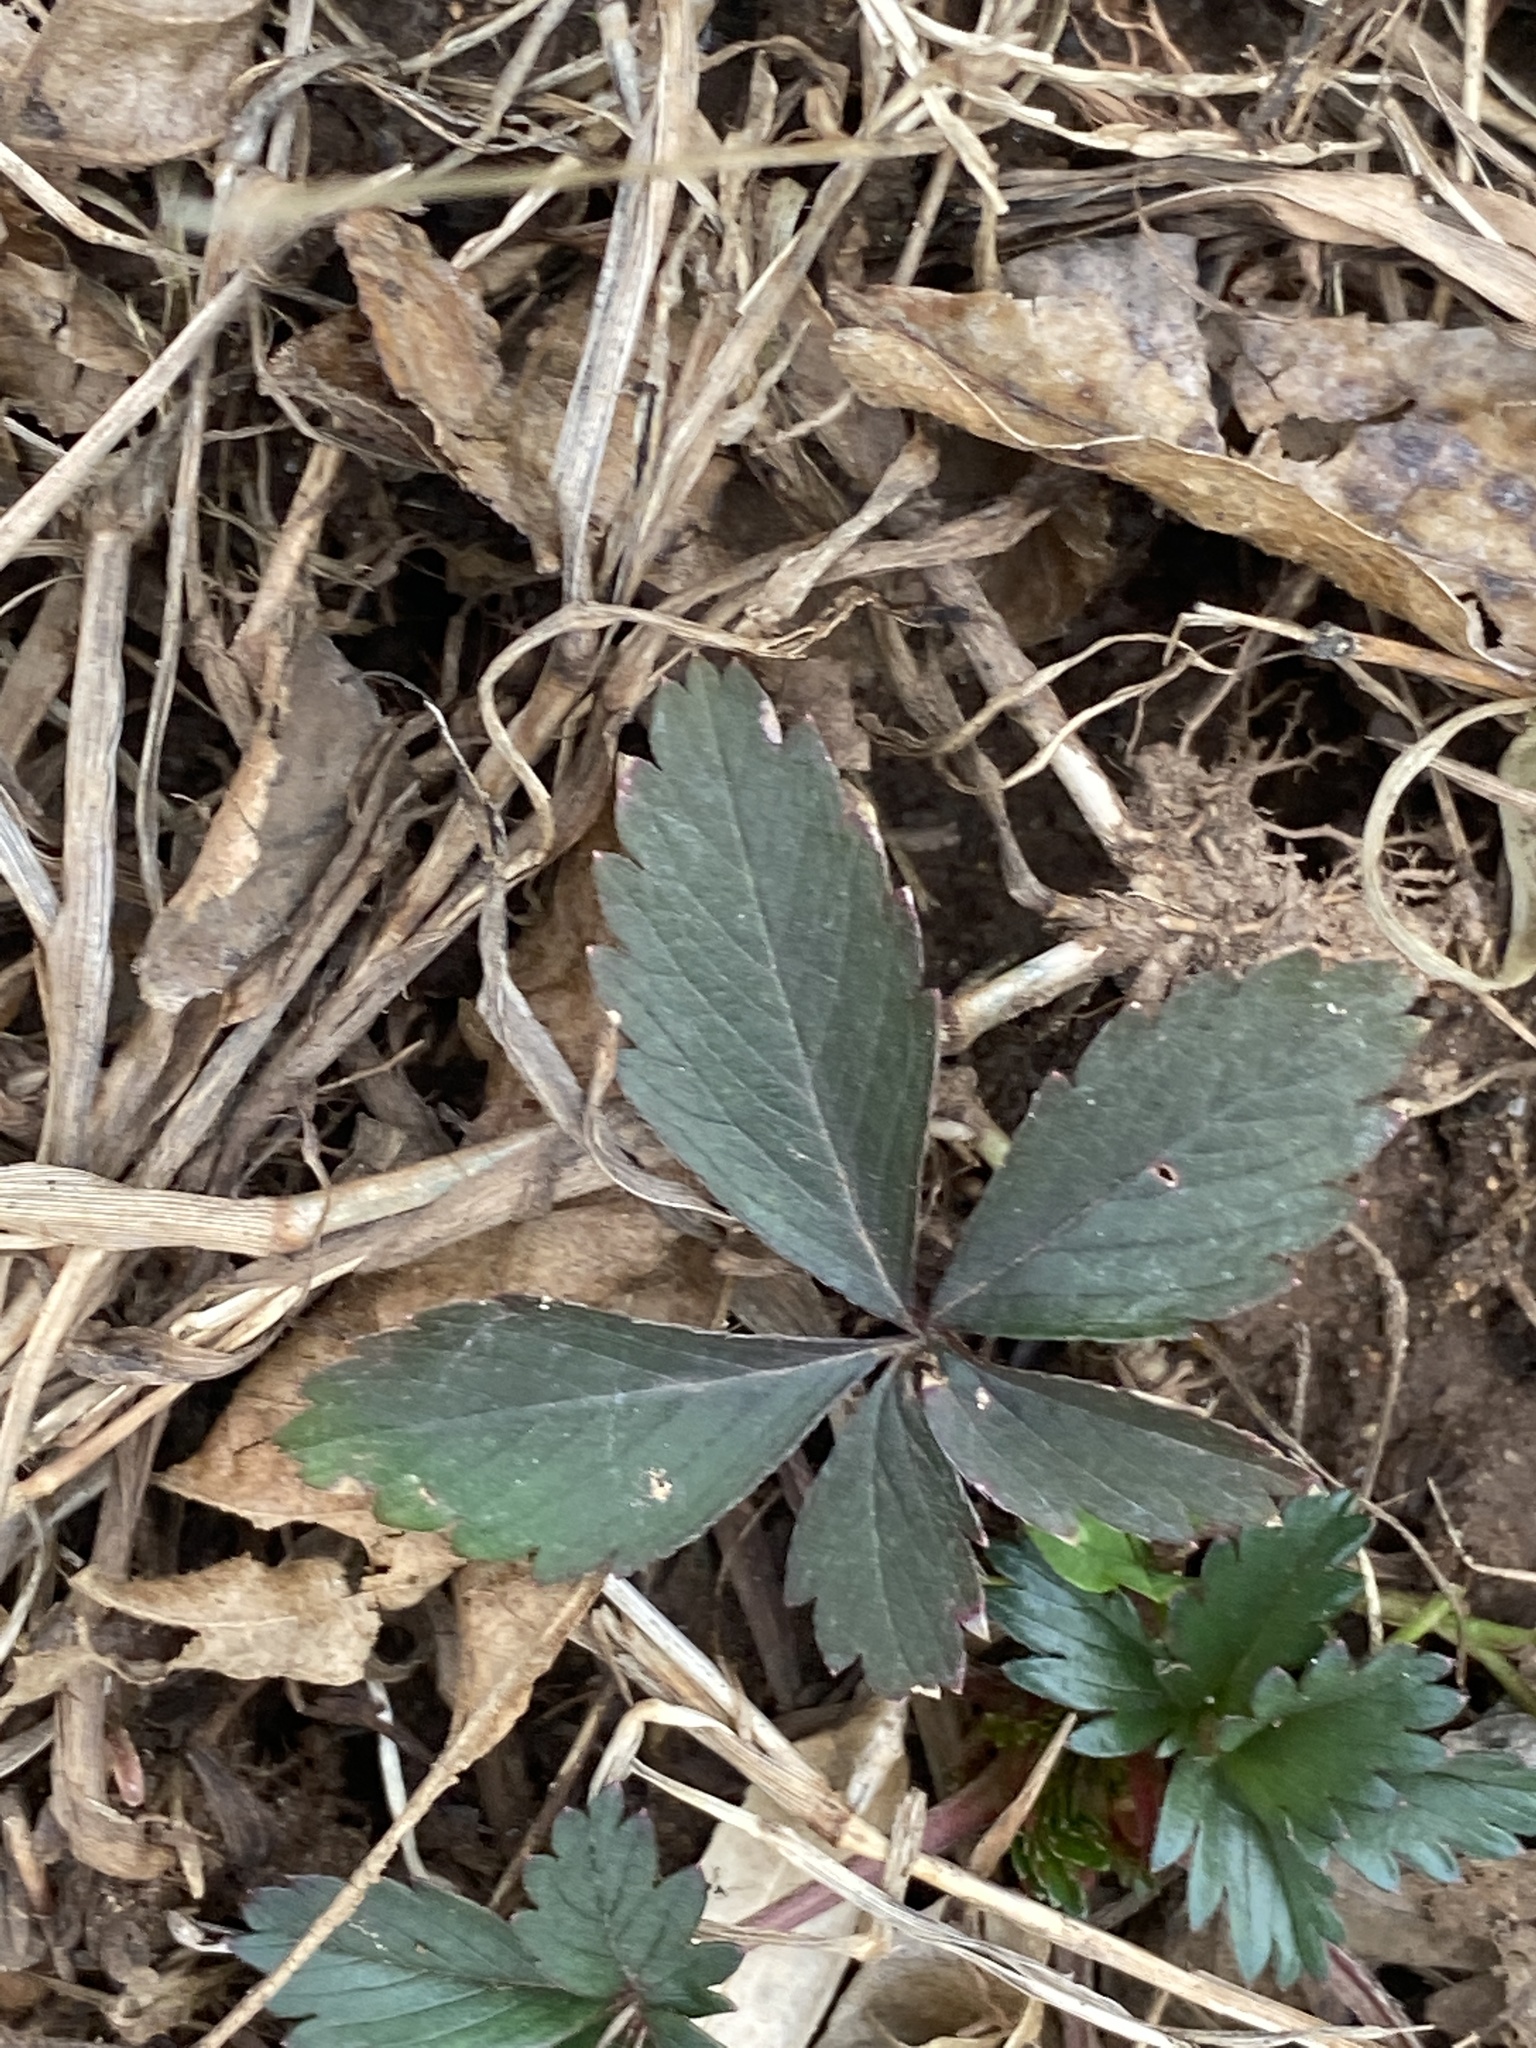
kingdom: Plantae
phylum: Tracheophyta
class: Magnoliopsida
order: Rosales
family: Rosaceae
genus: Potentilla
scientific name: Potentilla canadensis
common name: Canada cinquefoil
